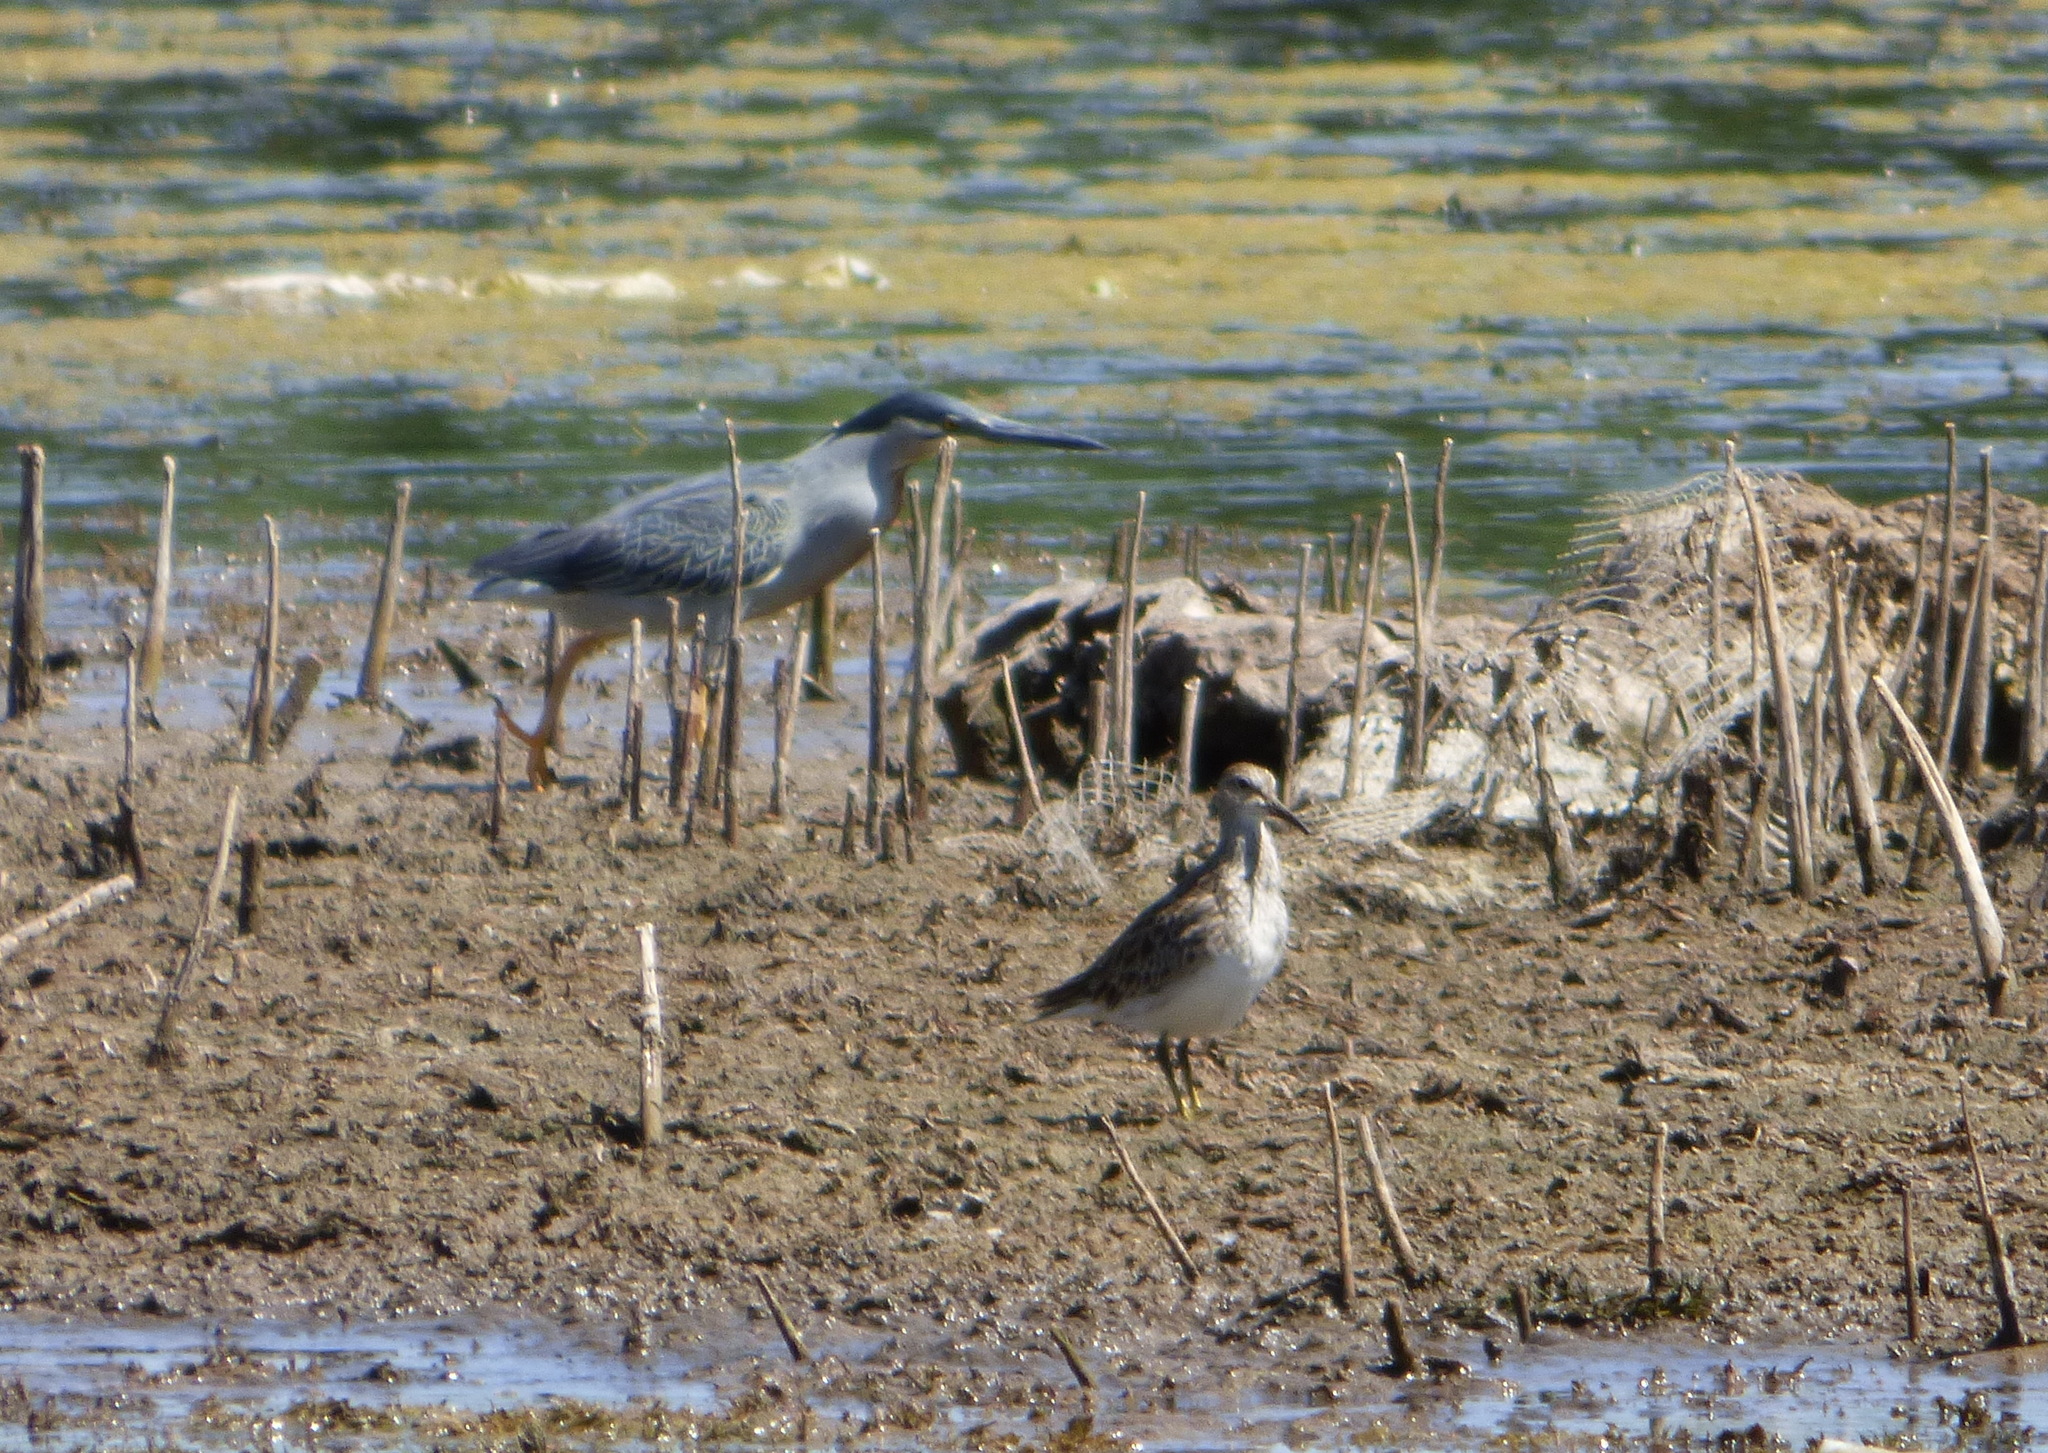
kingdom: Animalia
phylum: Chordata
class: Aves
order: Charadriiformes
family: Scolopacidae
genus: Calidris
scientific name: Calidris melanotos
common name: Pectoral sandpiper
